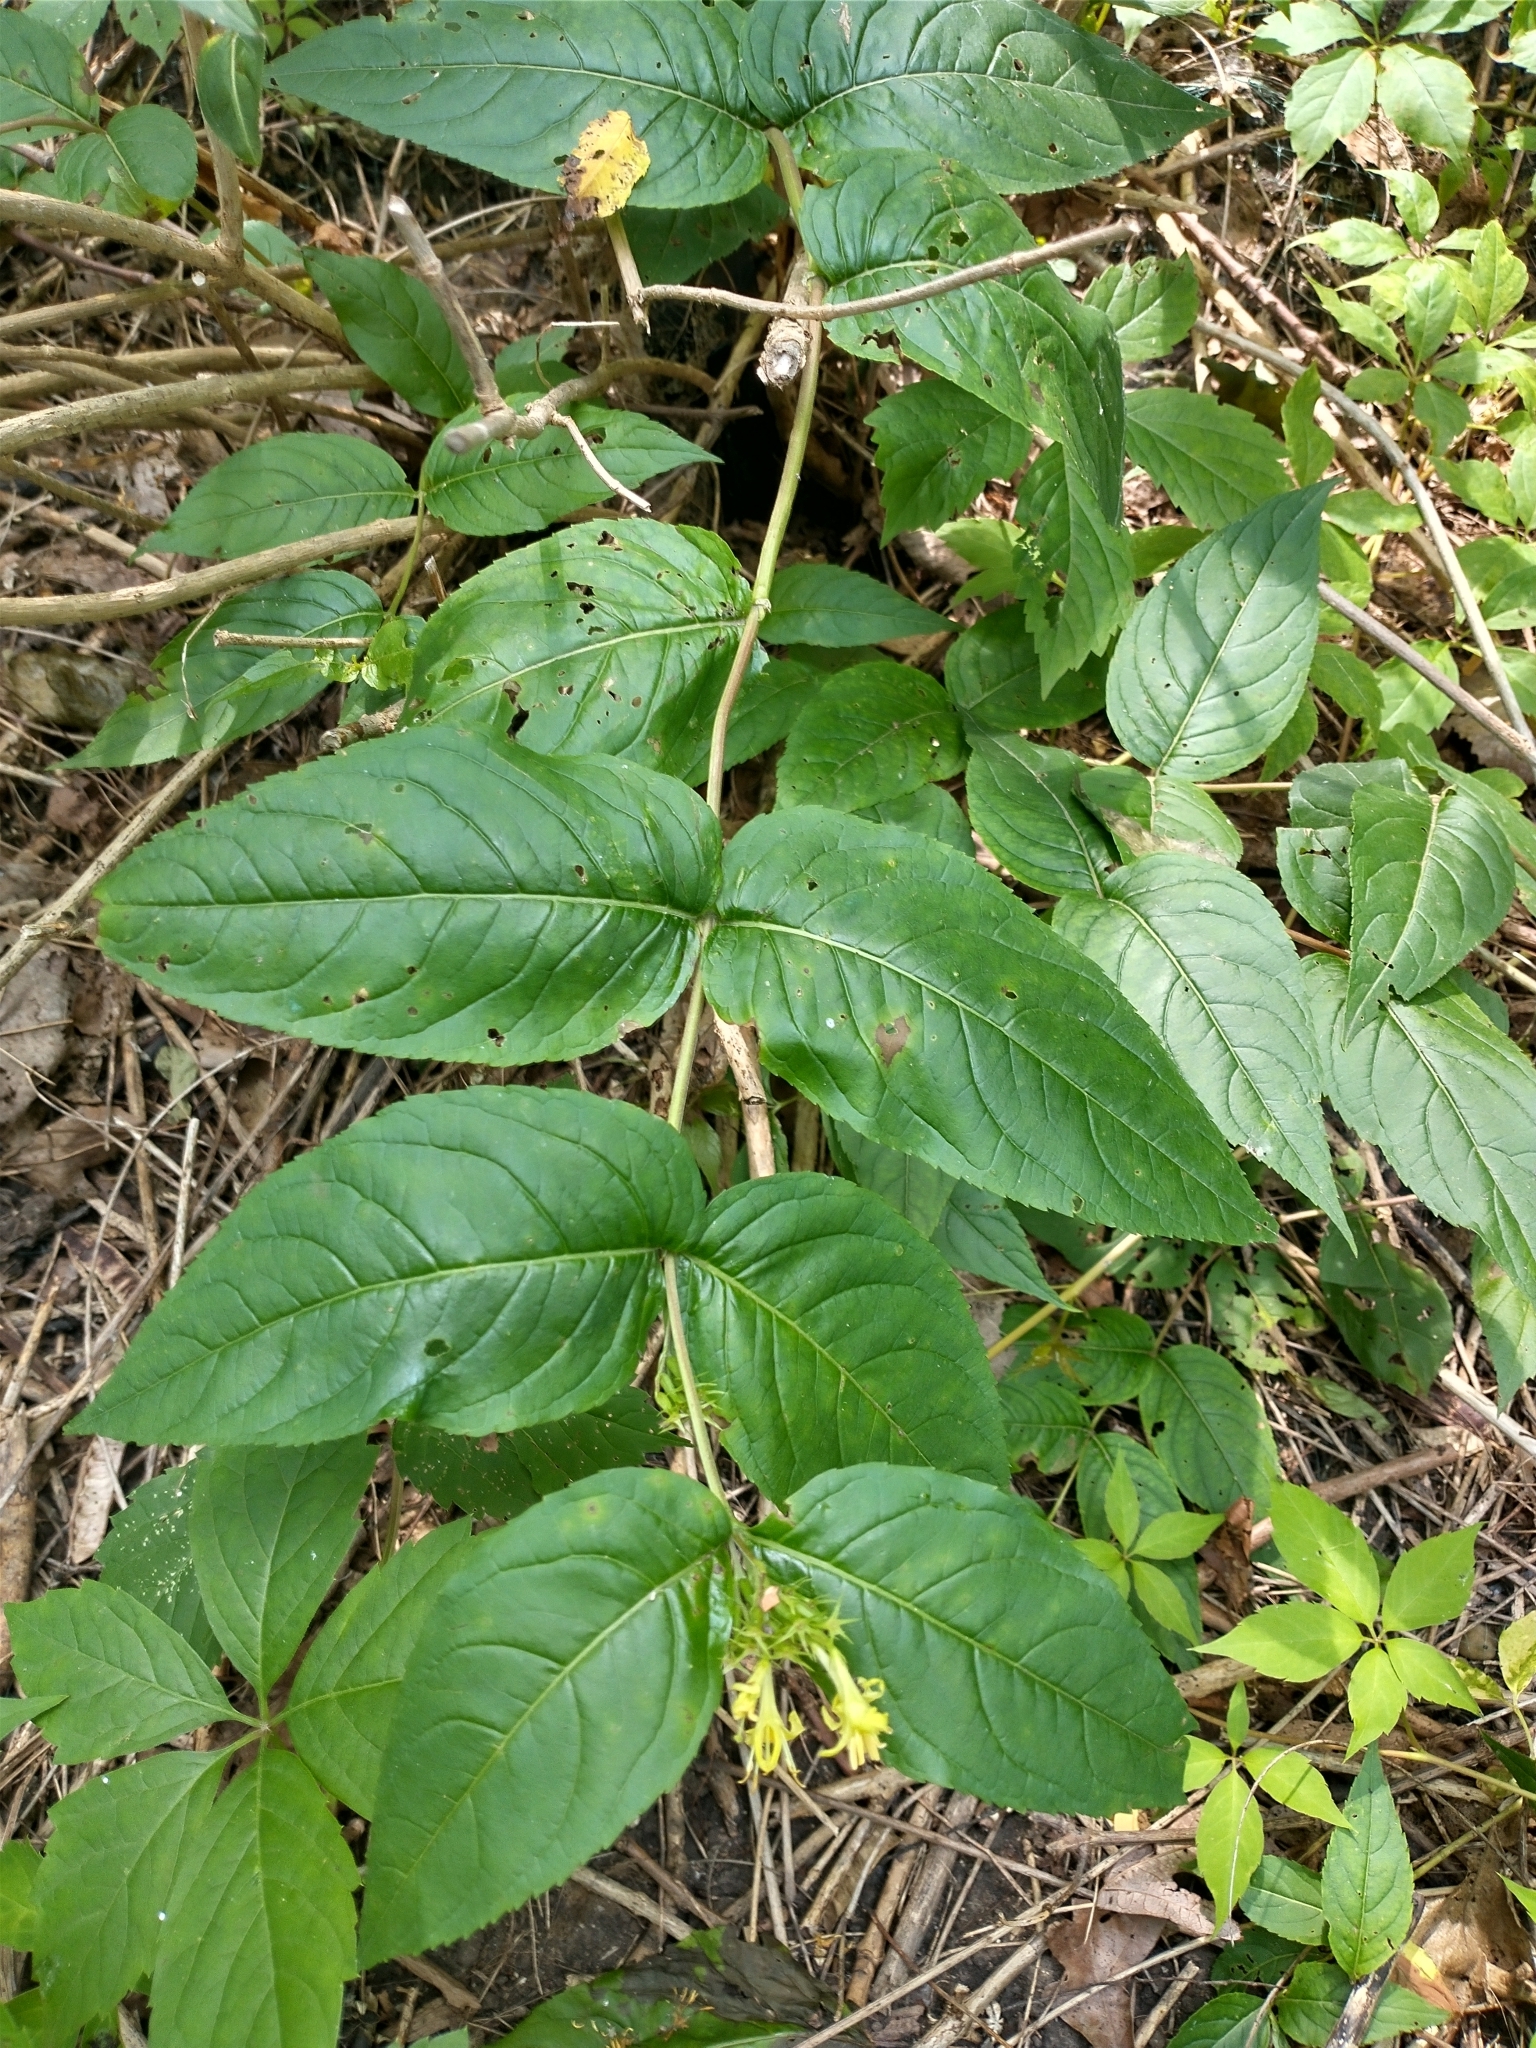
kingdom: Plantae
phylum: Tracheophyta
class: Magnoliopsida
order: Dipsacales
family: Caprifoliaceae
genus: Diervilla
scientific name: Diervilla lonicera
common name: Bush-honeysuckle
